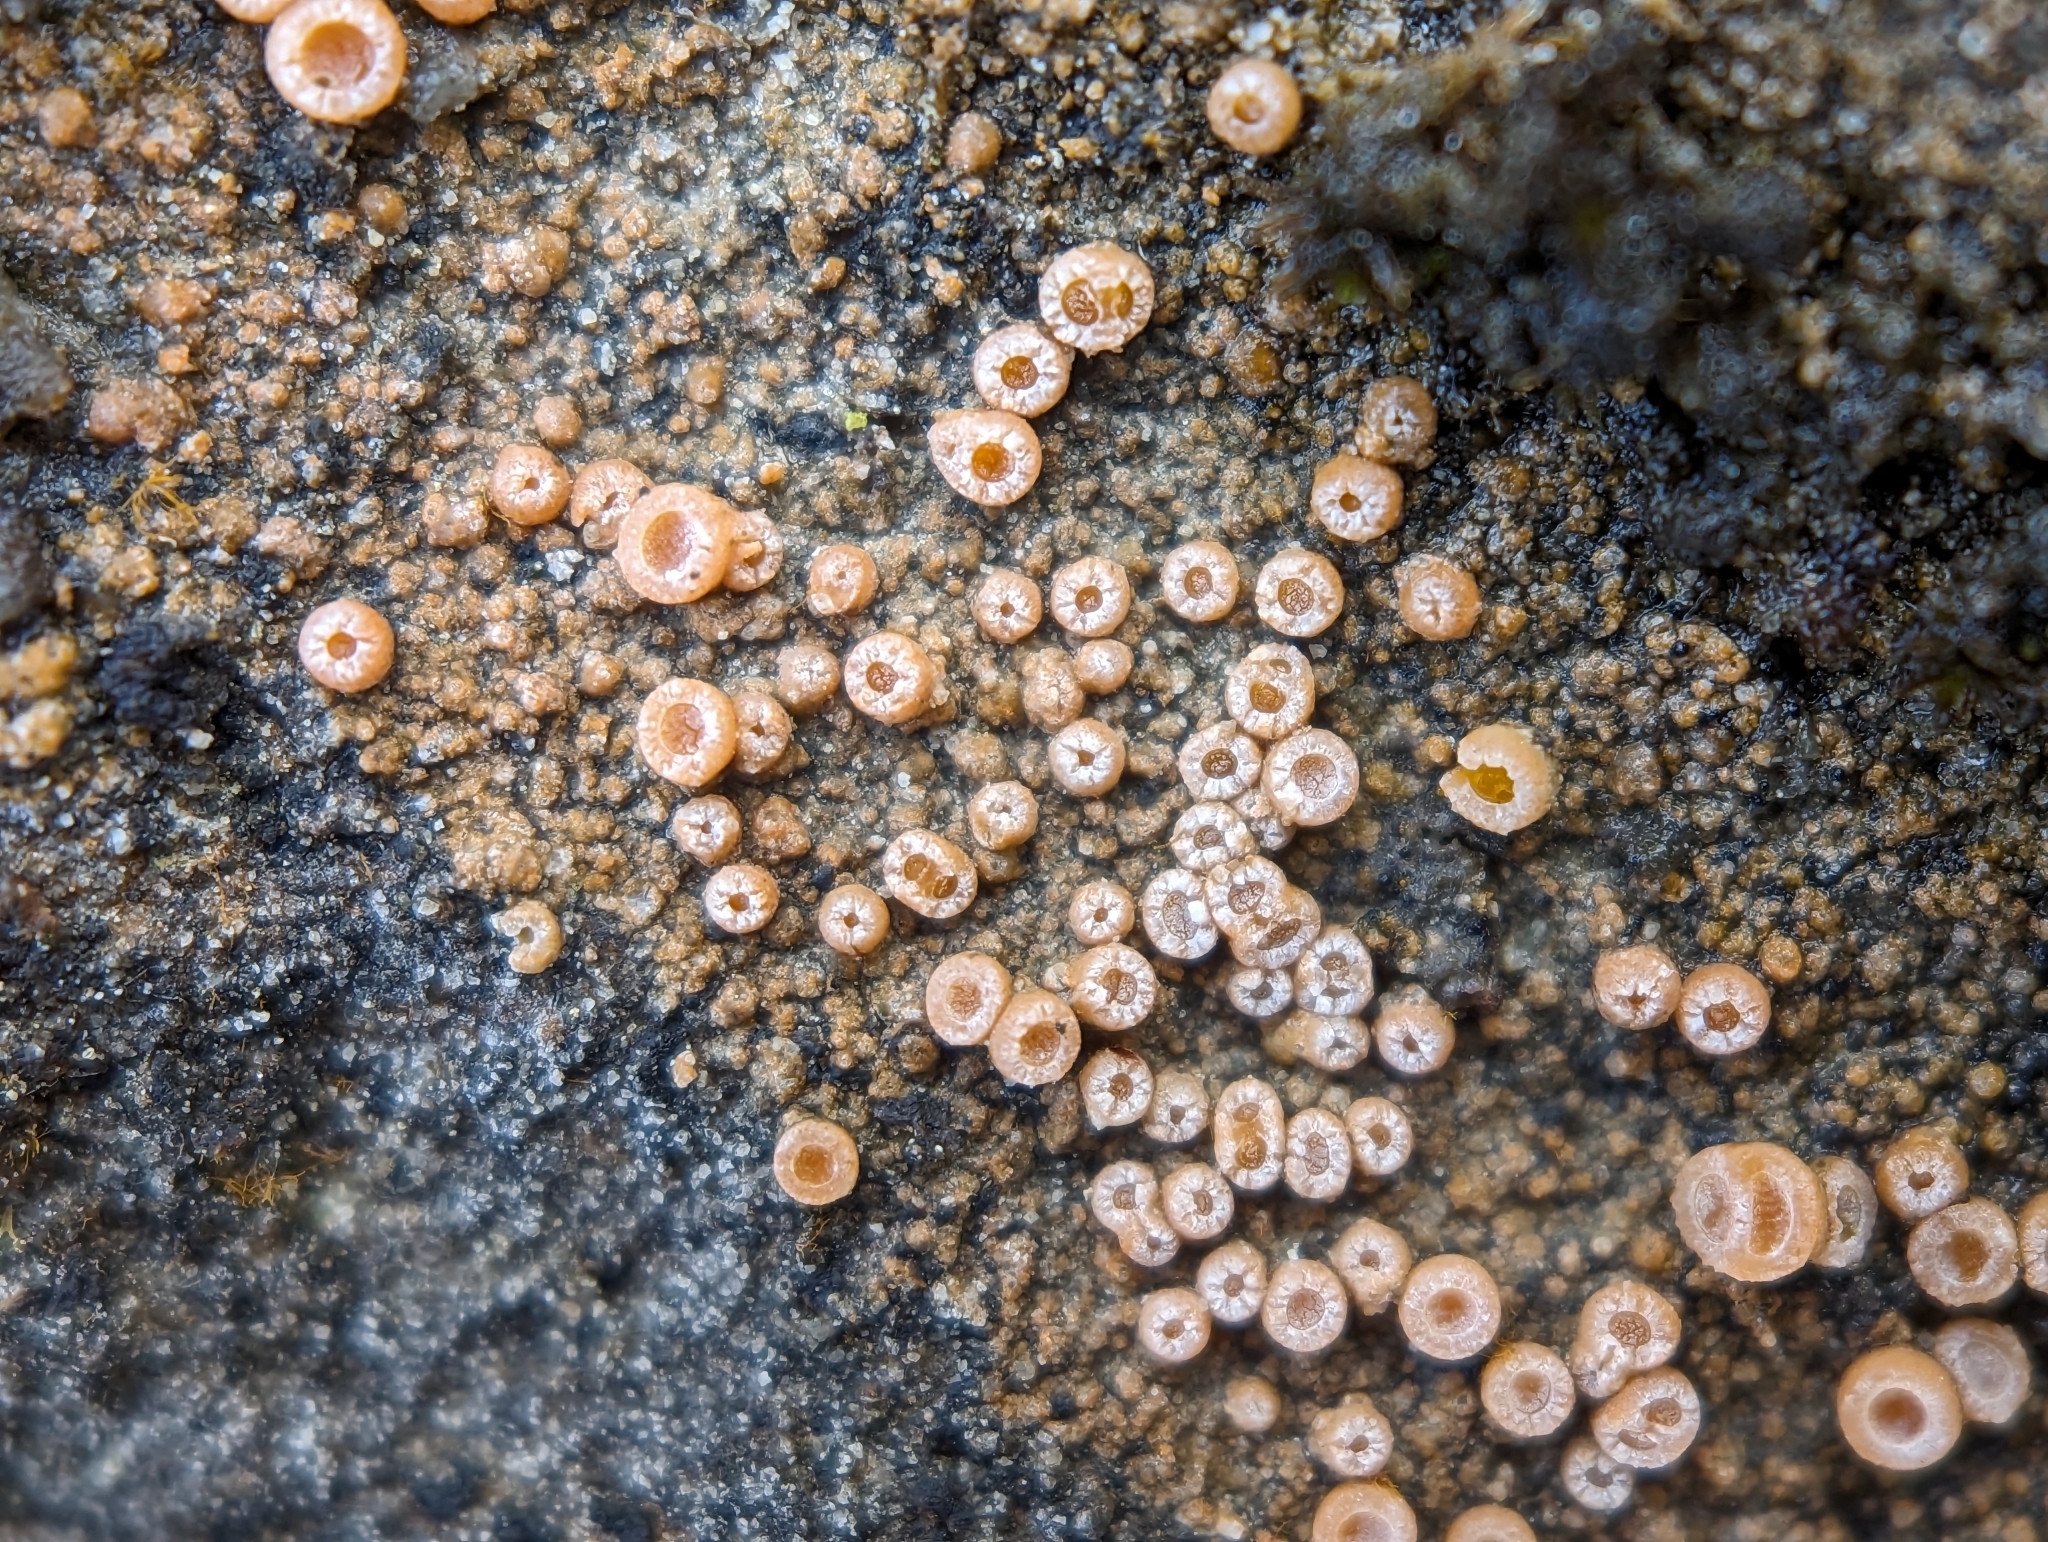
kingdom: Fungi
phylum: Ascomycota
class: Lecanoromycetes
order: Gyalectales
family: Gyalectaceae
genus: Gyalecta
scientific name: Gyalecta jenensis
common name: Rock dimple lichen
